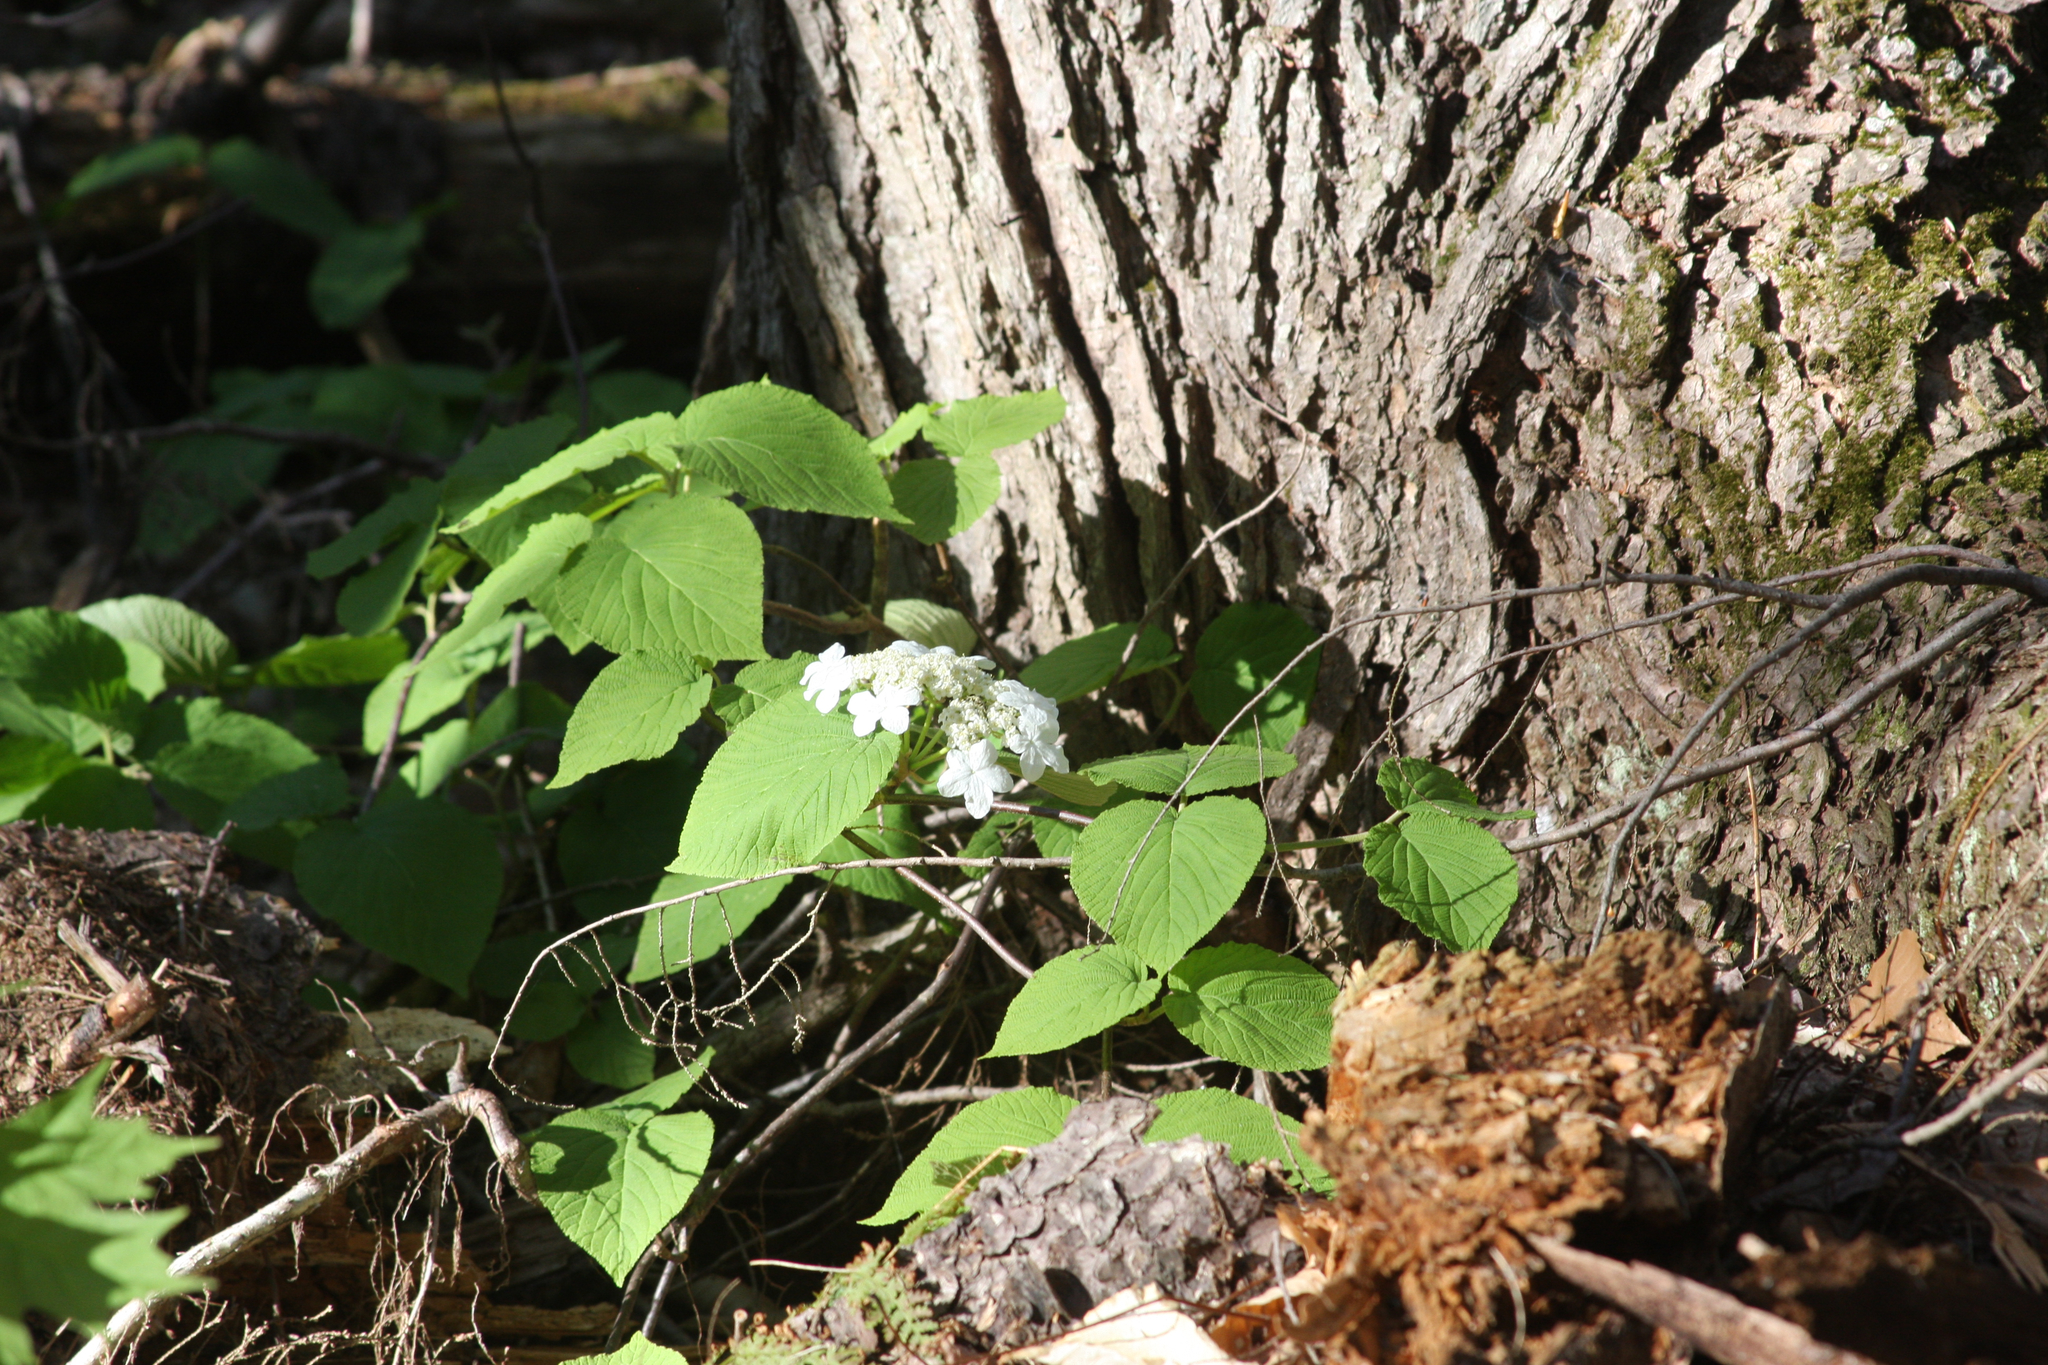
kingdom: Plantae
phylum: Tracheophyta
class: Magnoliopsida
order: Dipsacales
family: Viburnaceae
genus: Viburnum
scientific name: Viburnum lantanoides
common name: Hobblebush
